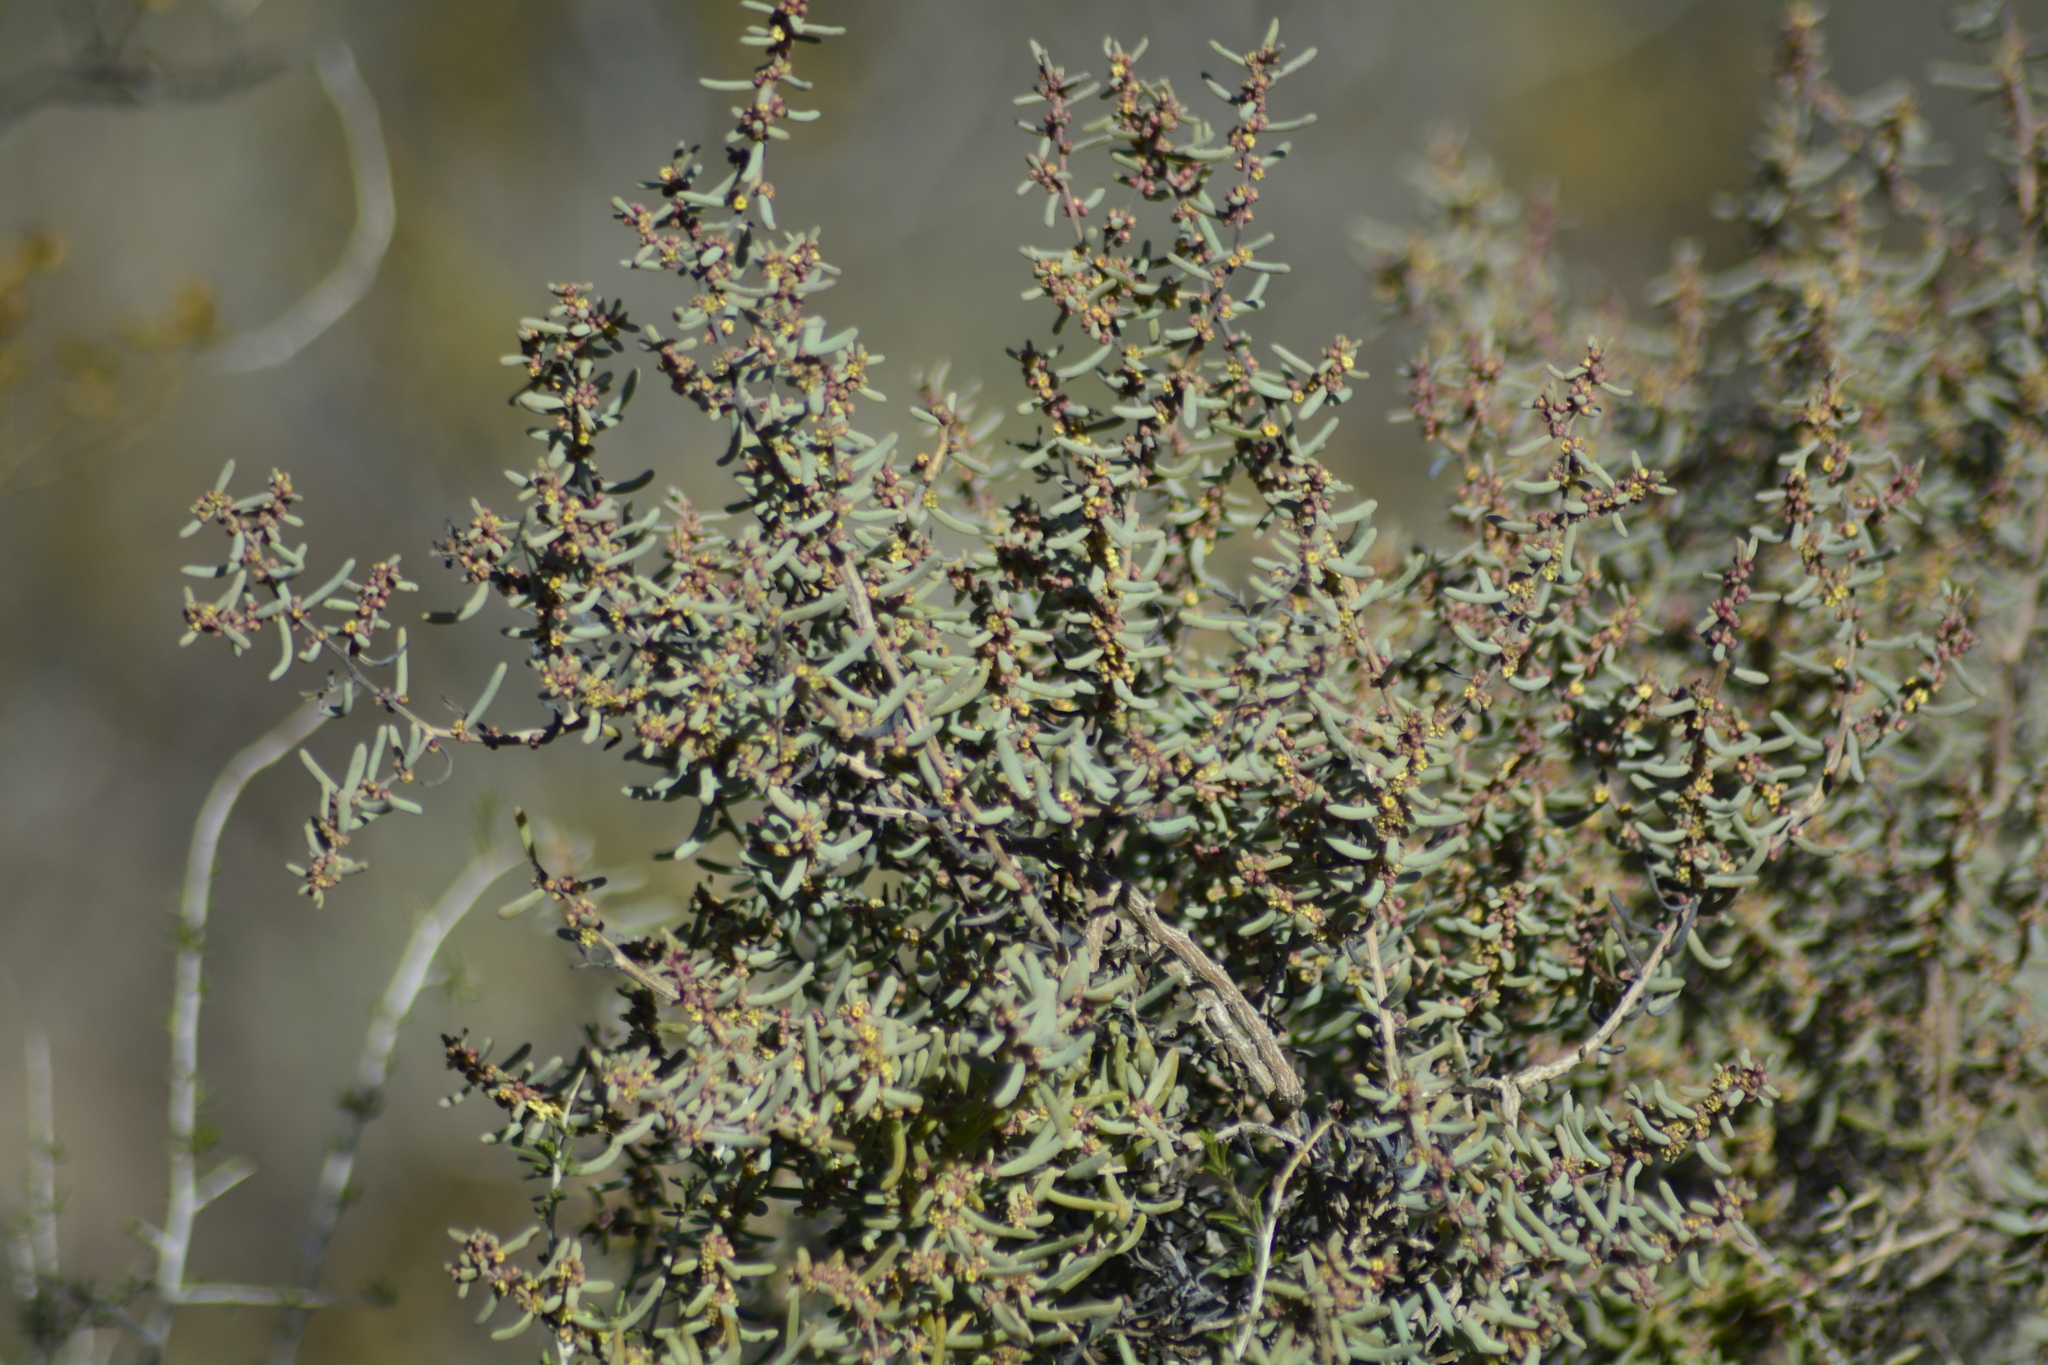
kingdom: Plantae
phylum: Tracheophyta
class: Magnoliopsida
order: Caryophyllales
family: Amaranthaceae
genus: Suaeda
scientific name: Suaeda divaricata
